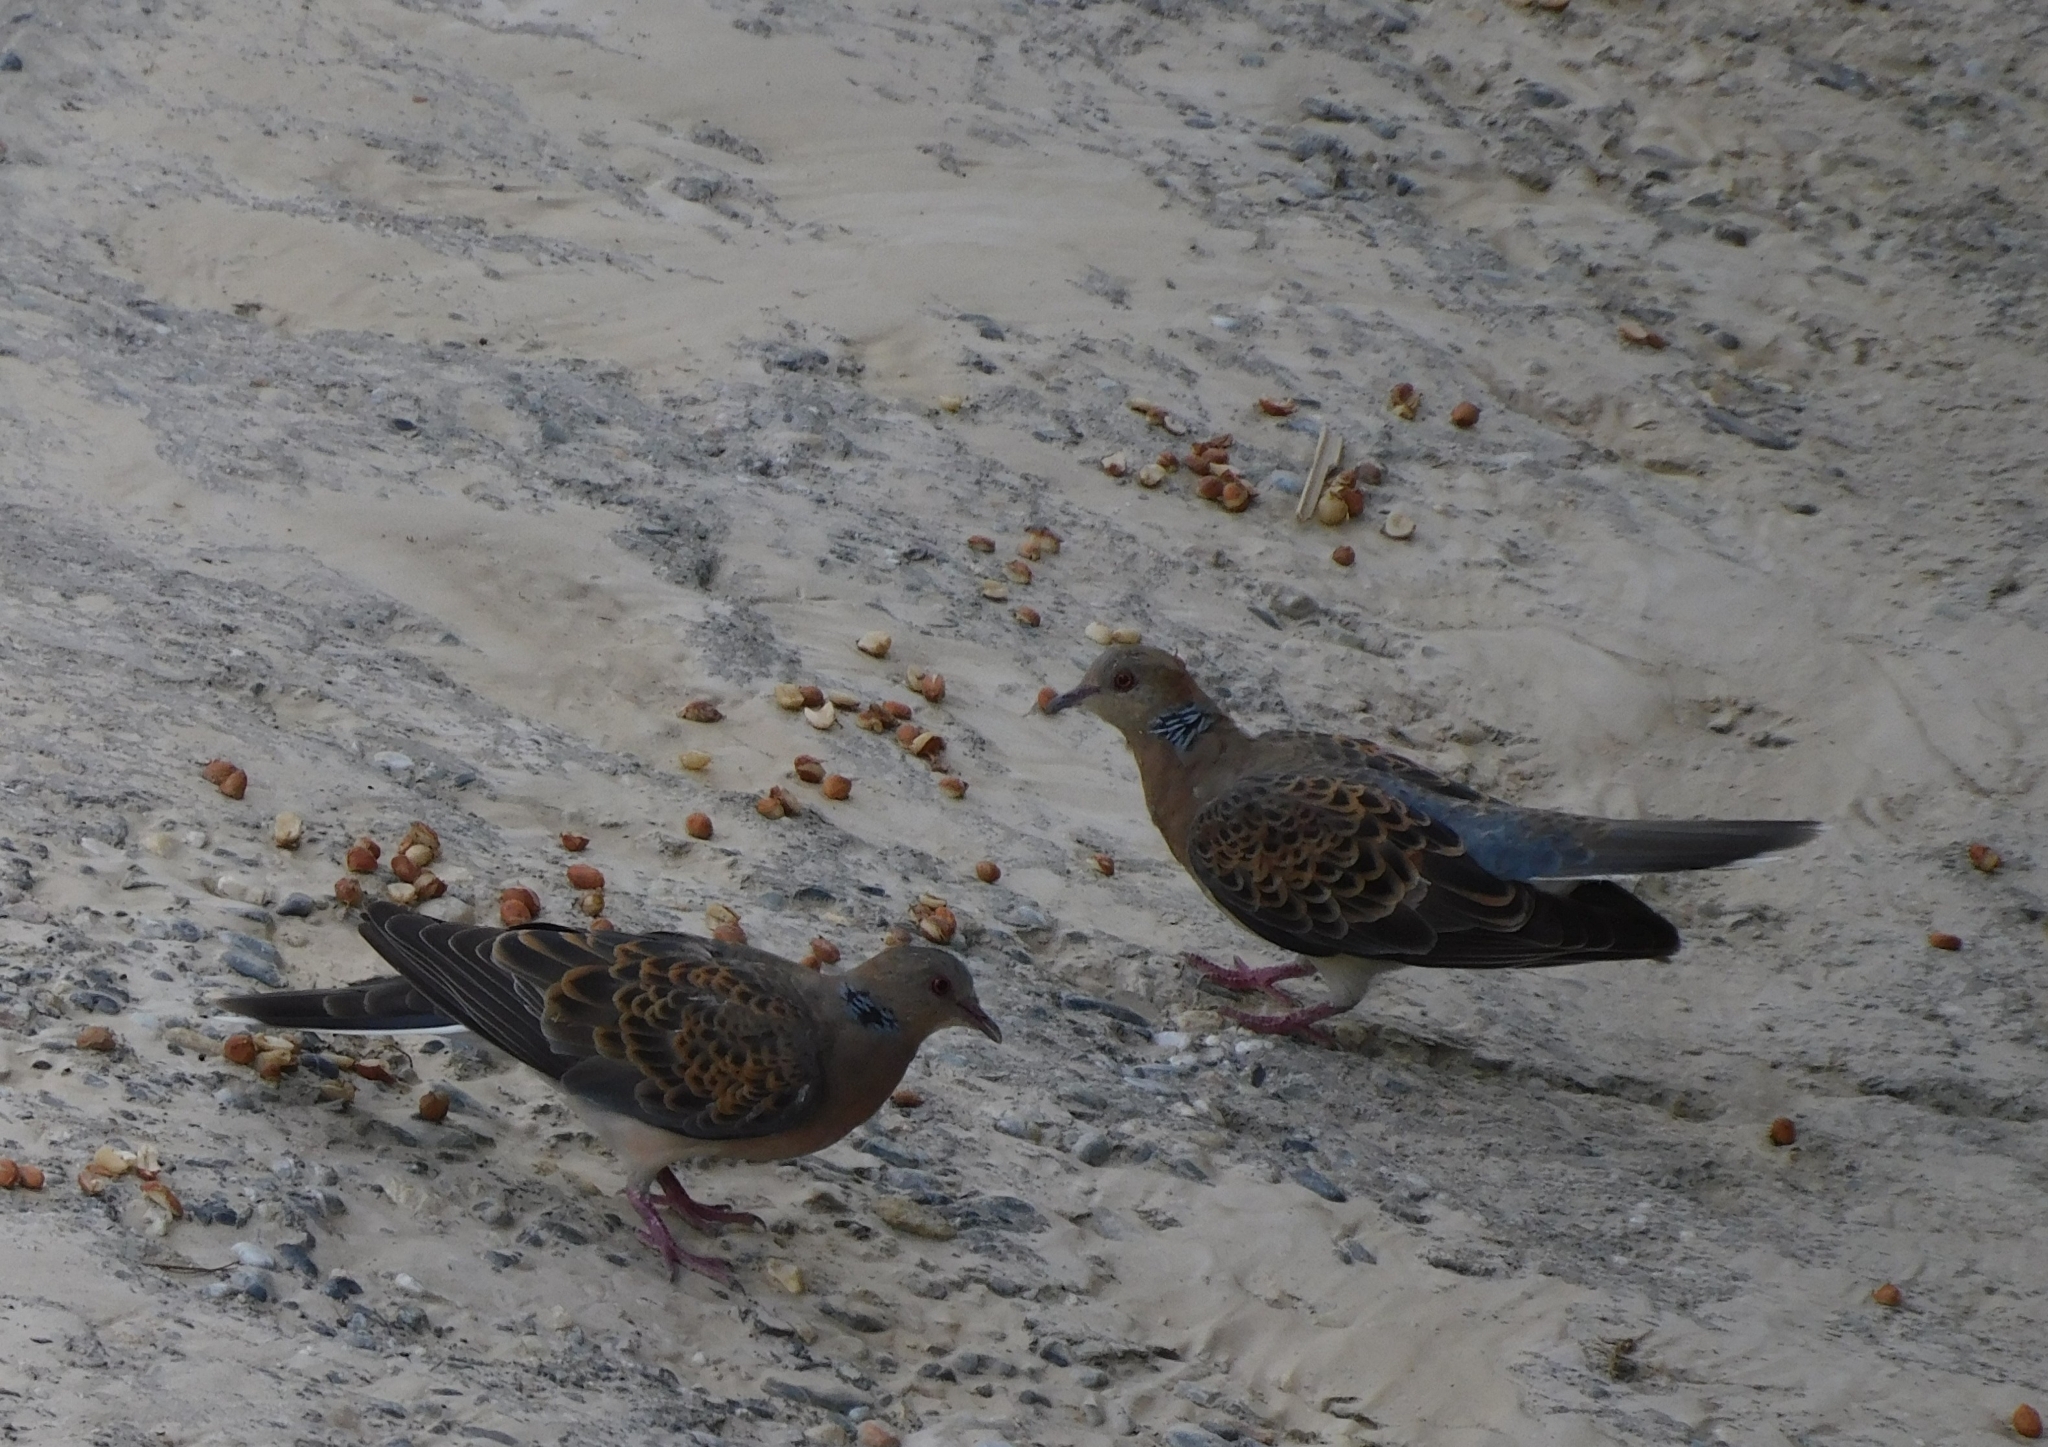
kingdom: Animalia
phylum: Chordata
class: Aves
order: Columbiformes
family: Columbidae
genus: Streptopelia
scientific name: Streptopelia orientalis
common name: Oriental turtle dove
